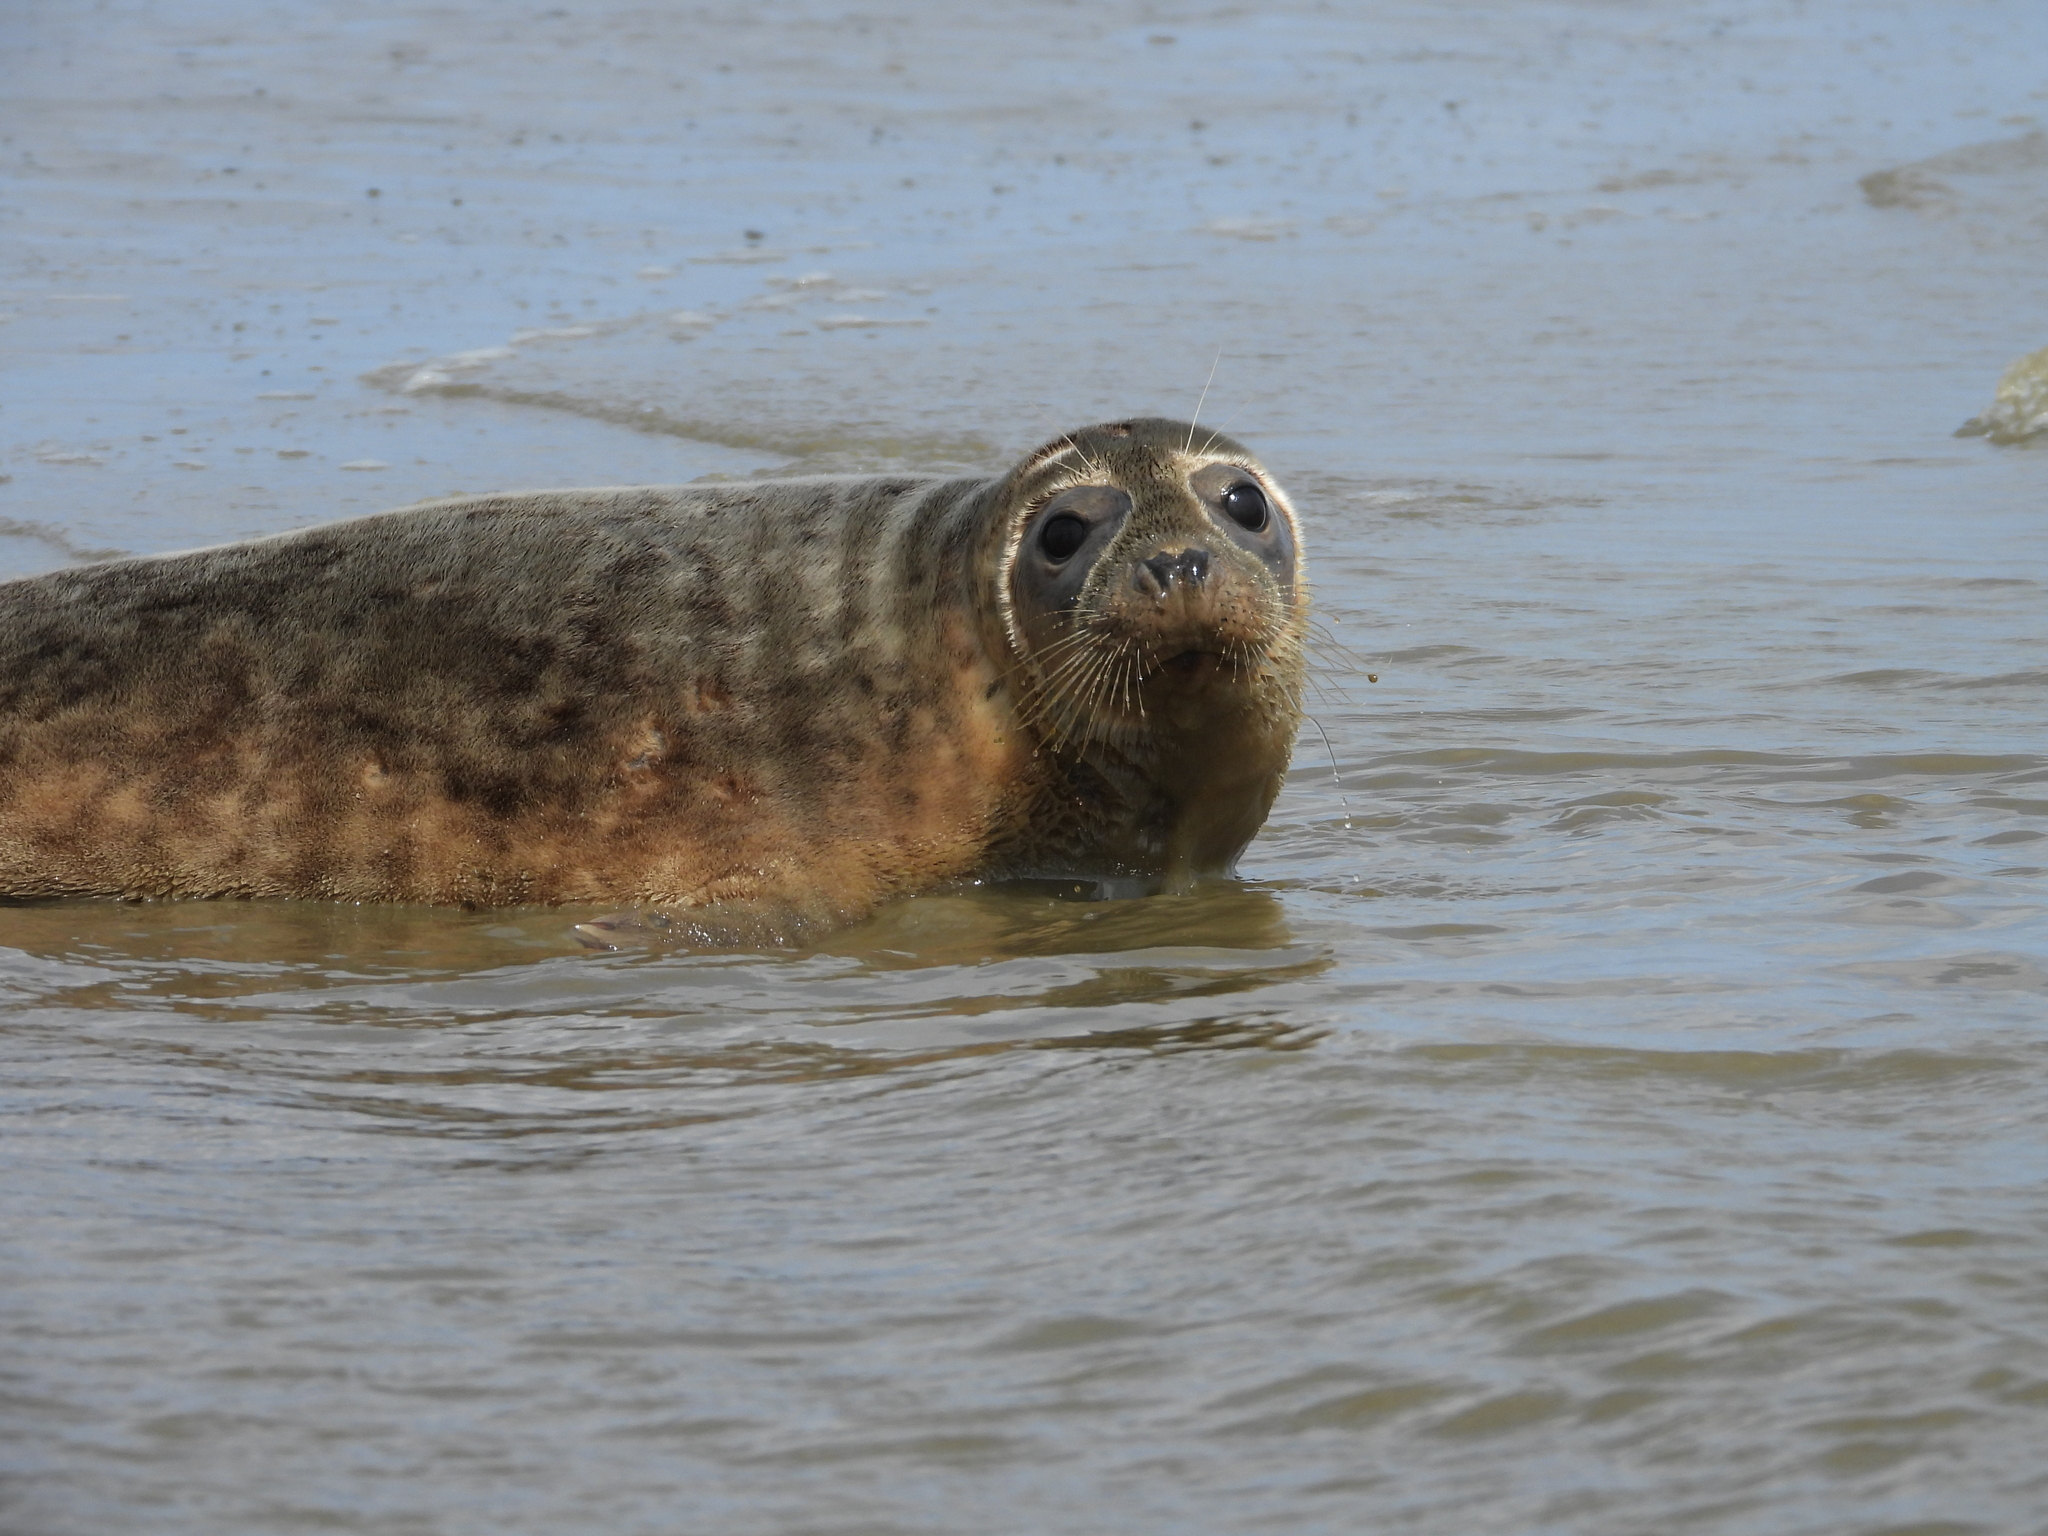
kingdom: Animalia
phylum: Chordata
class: Mammalia
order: Carnivora
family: Phocidae
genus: Halichoerus
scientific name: Halichoerus grypus
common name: Grey seal
